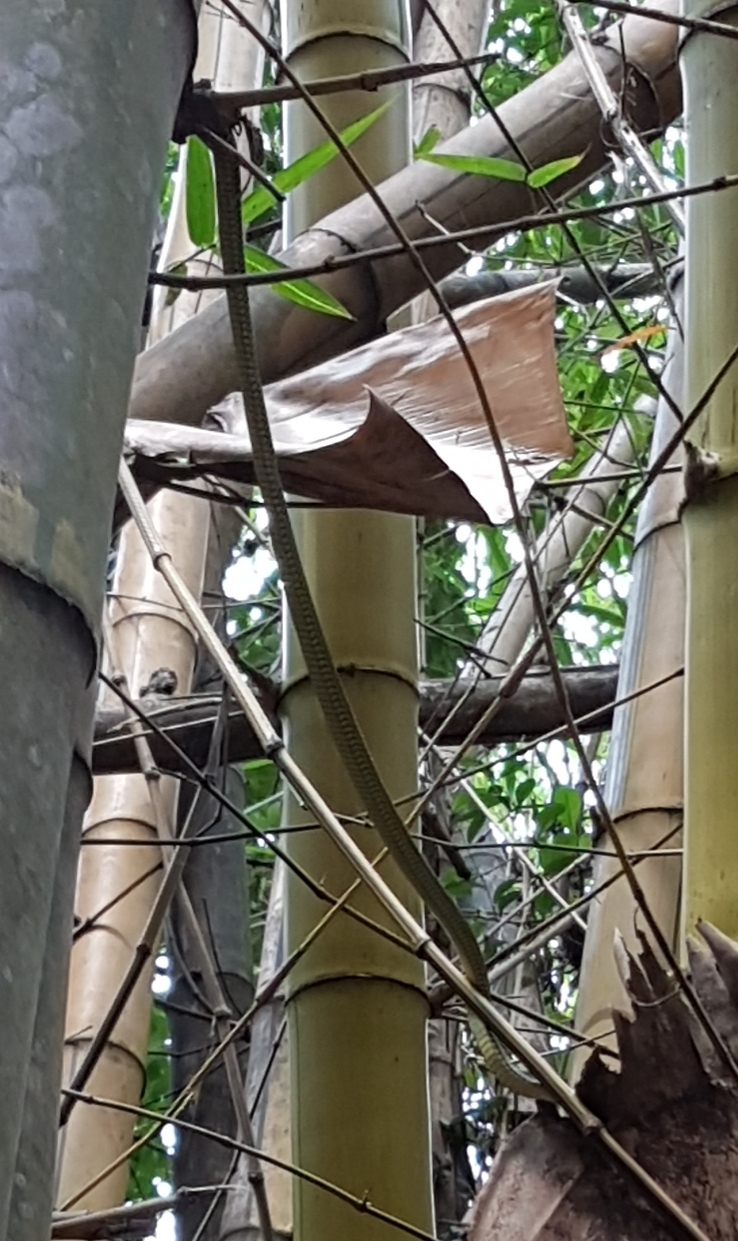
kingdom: Animalia
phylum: Chordata
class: Squamata
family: Colubridae
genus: Chrysopelea
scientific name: Chrysopelea paradisi
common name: Paradise tree snake
